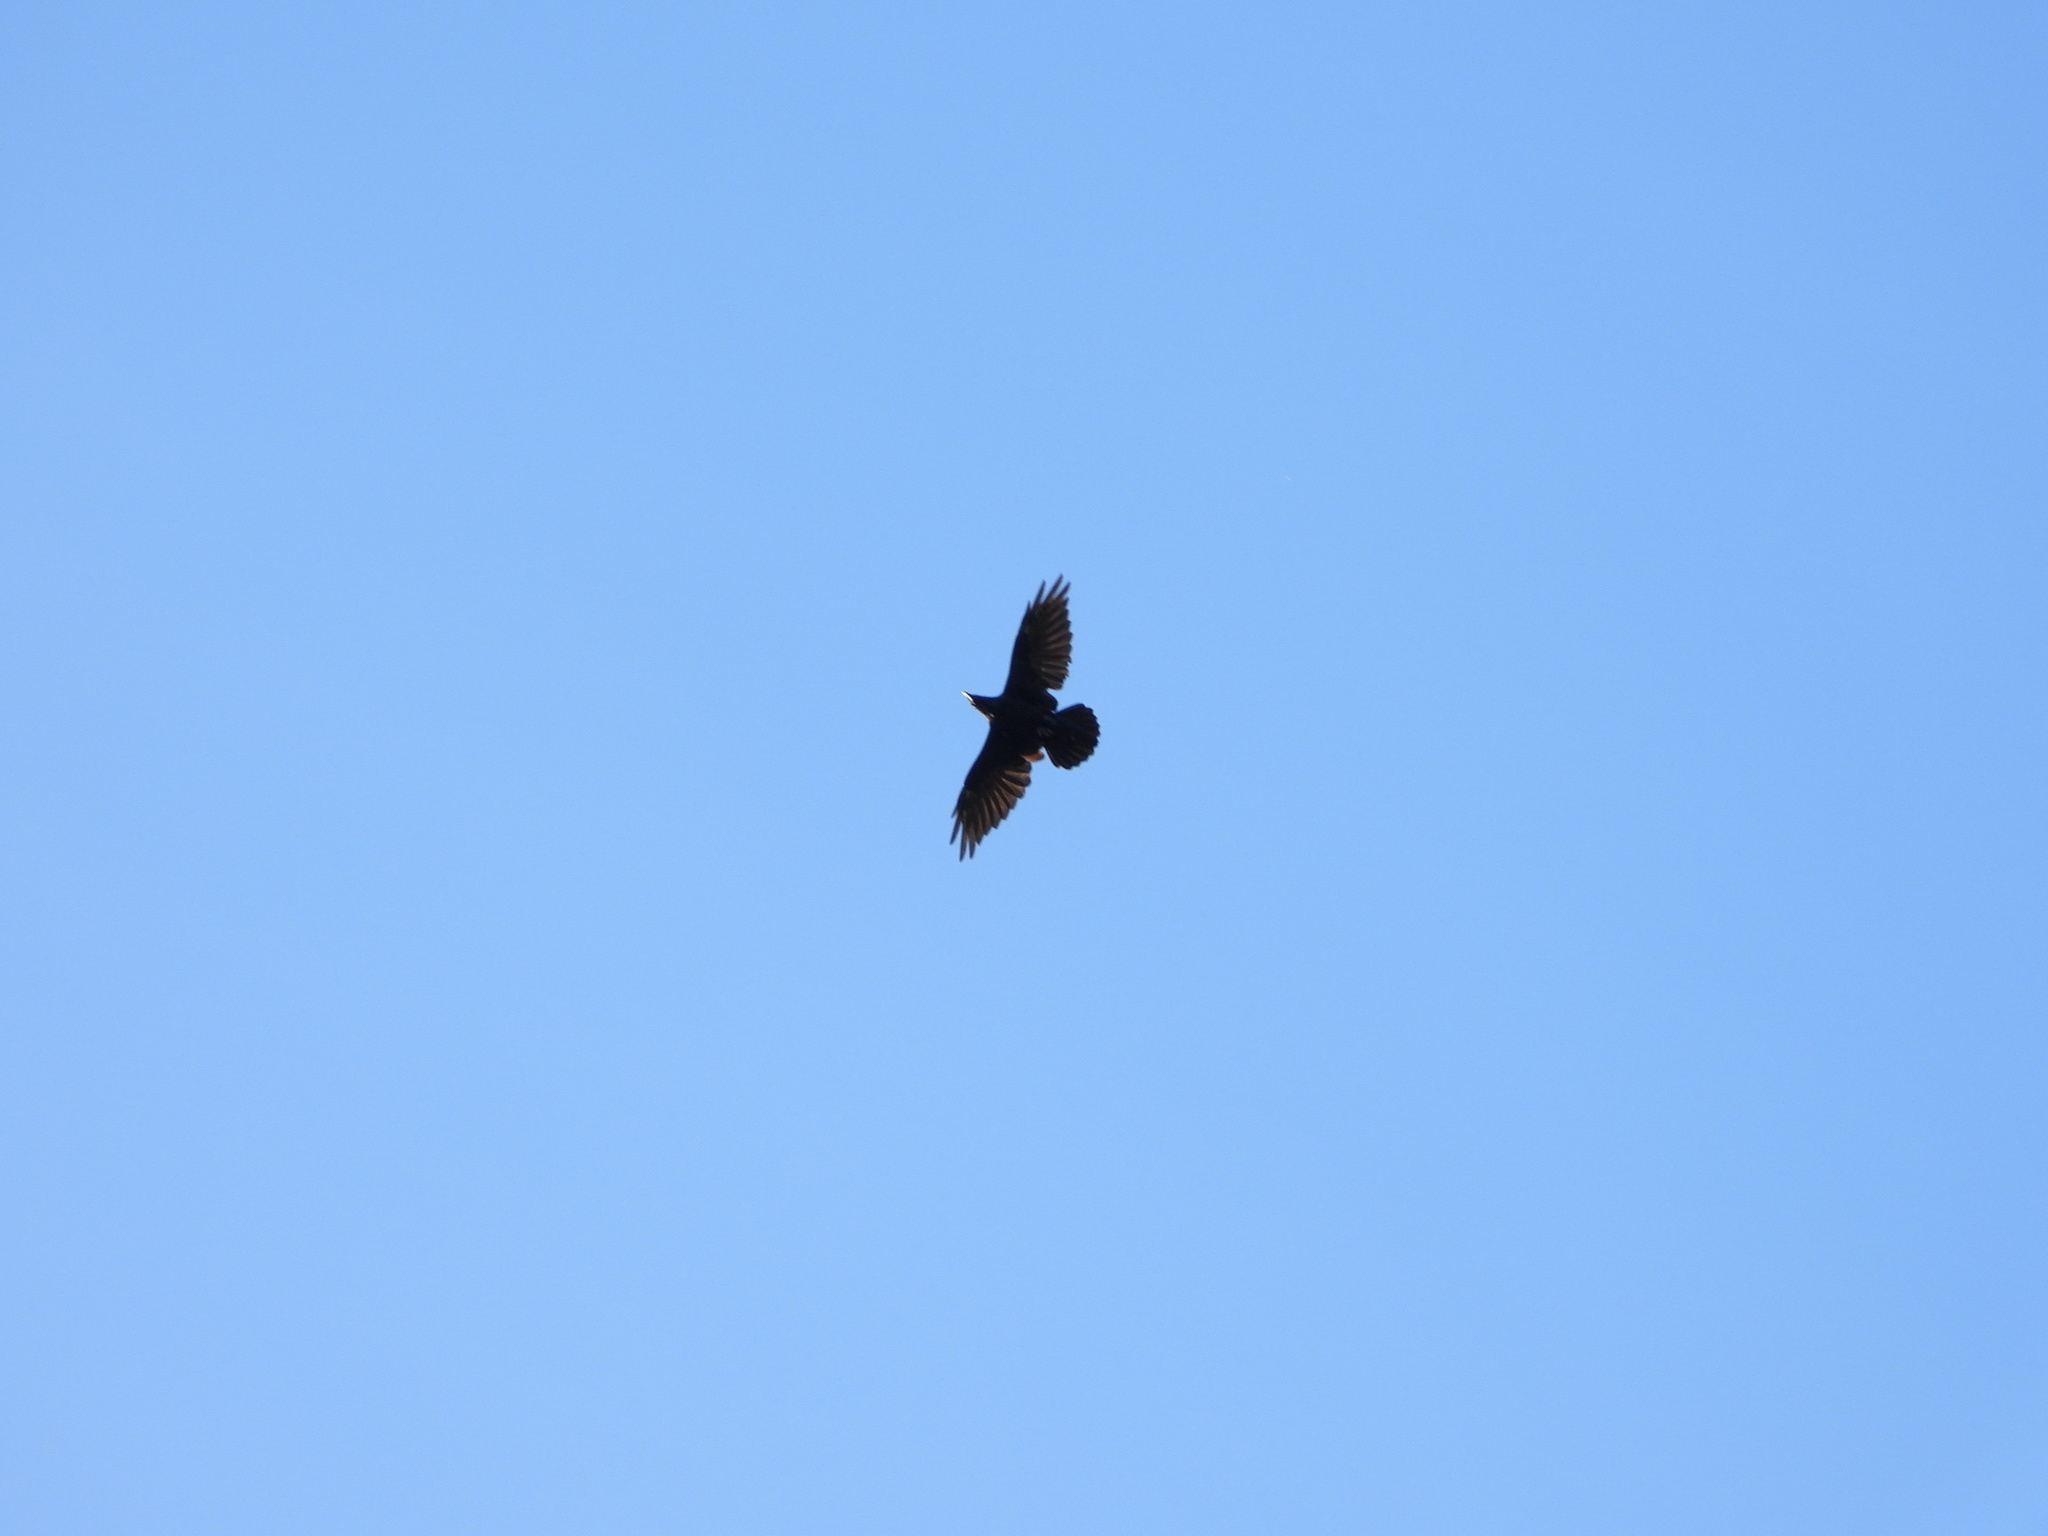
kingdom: Animalia
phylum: Chordata
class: Aves
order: Passeriformes
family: Corvidae
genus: Corvus
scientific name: Corvus corax
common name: Common raven
